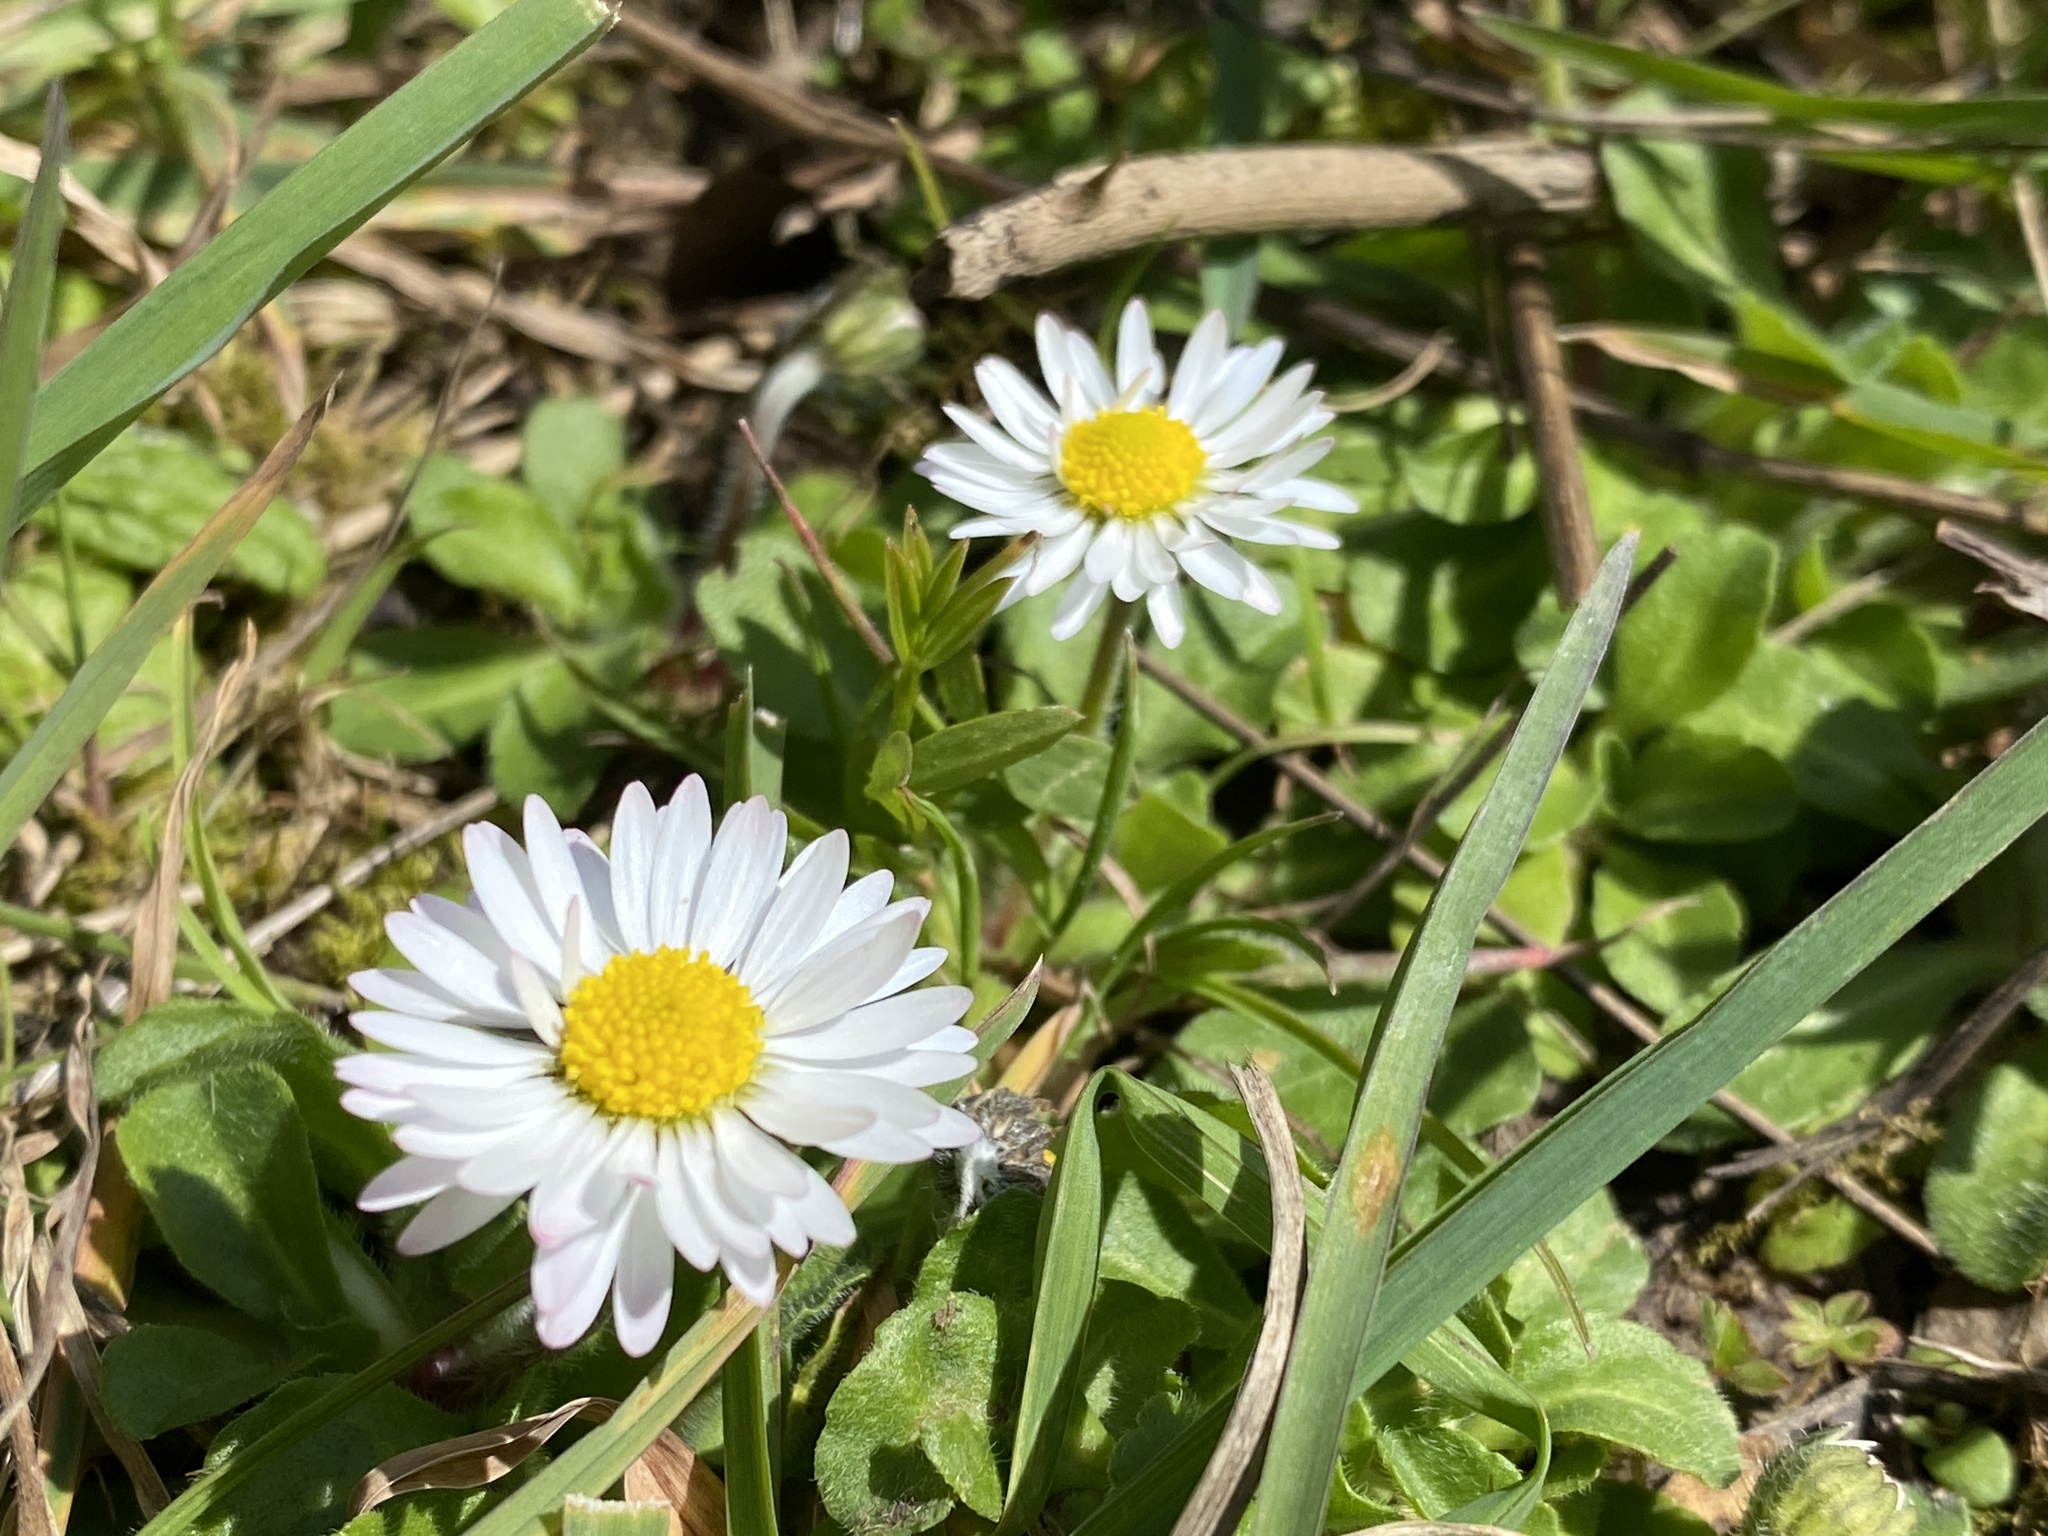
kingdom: Plantae
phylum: Tracheophyta
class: Magnoliopsida
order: Asterales
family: Asteraceae
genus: Bellis
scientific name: Bellis perennis
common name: Lawndaisy
